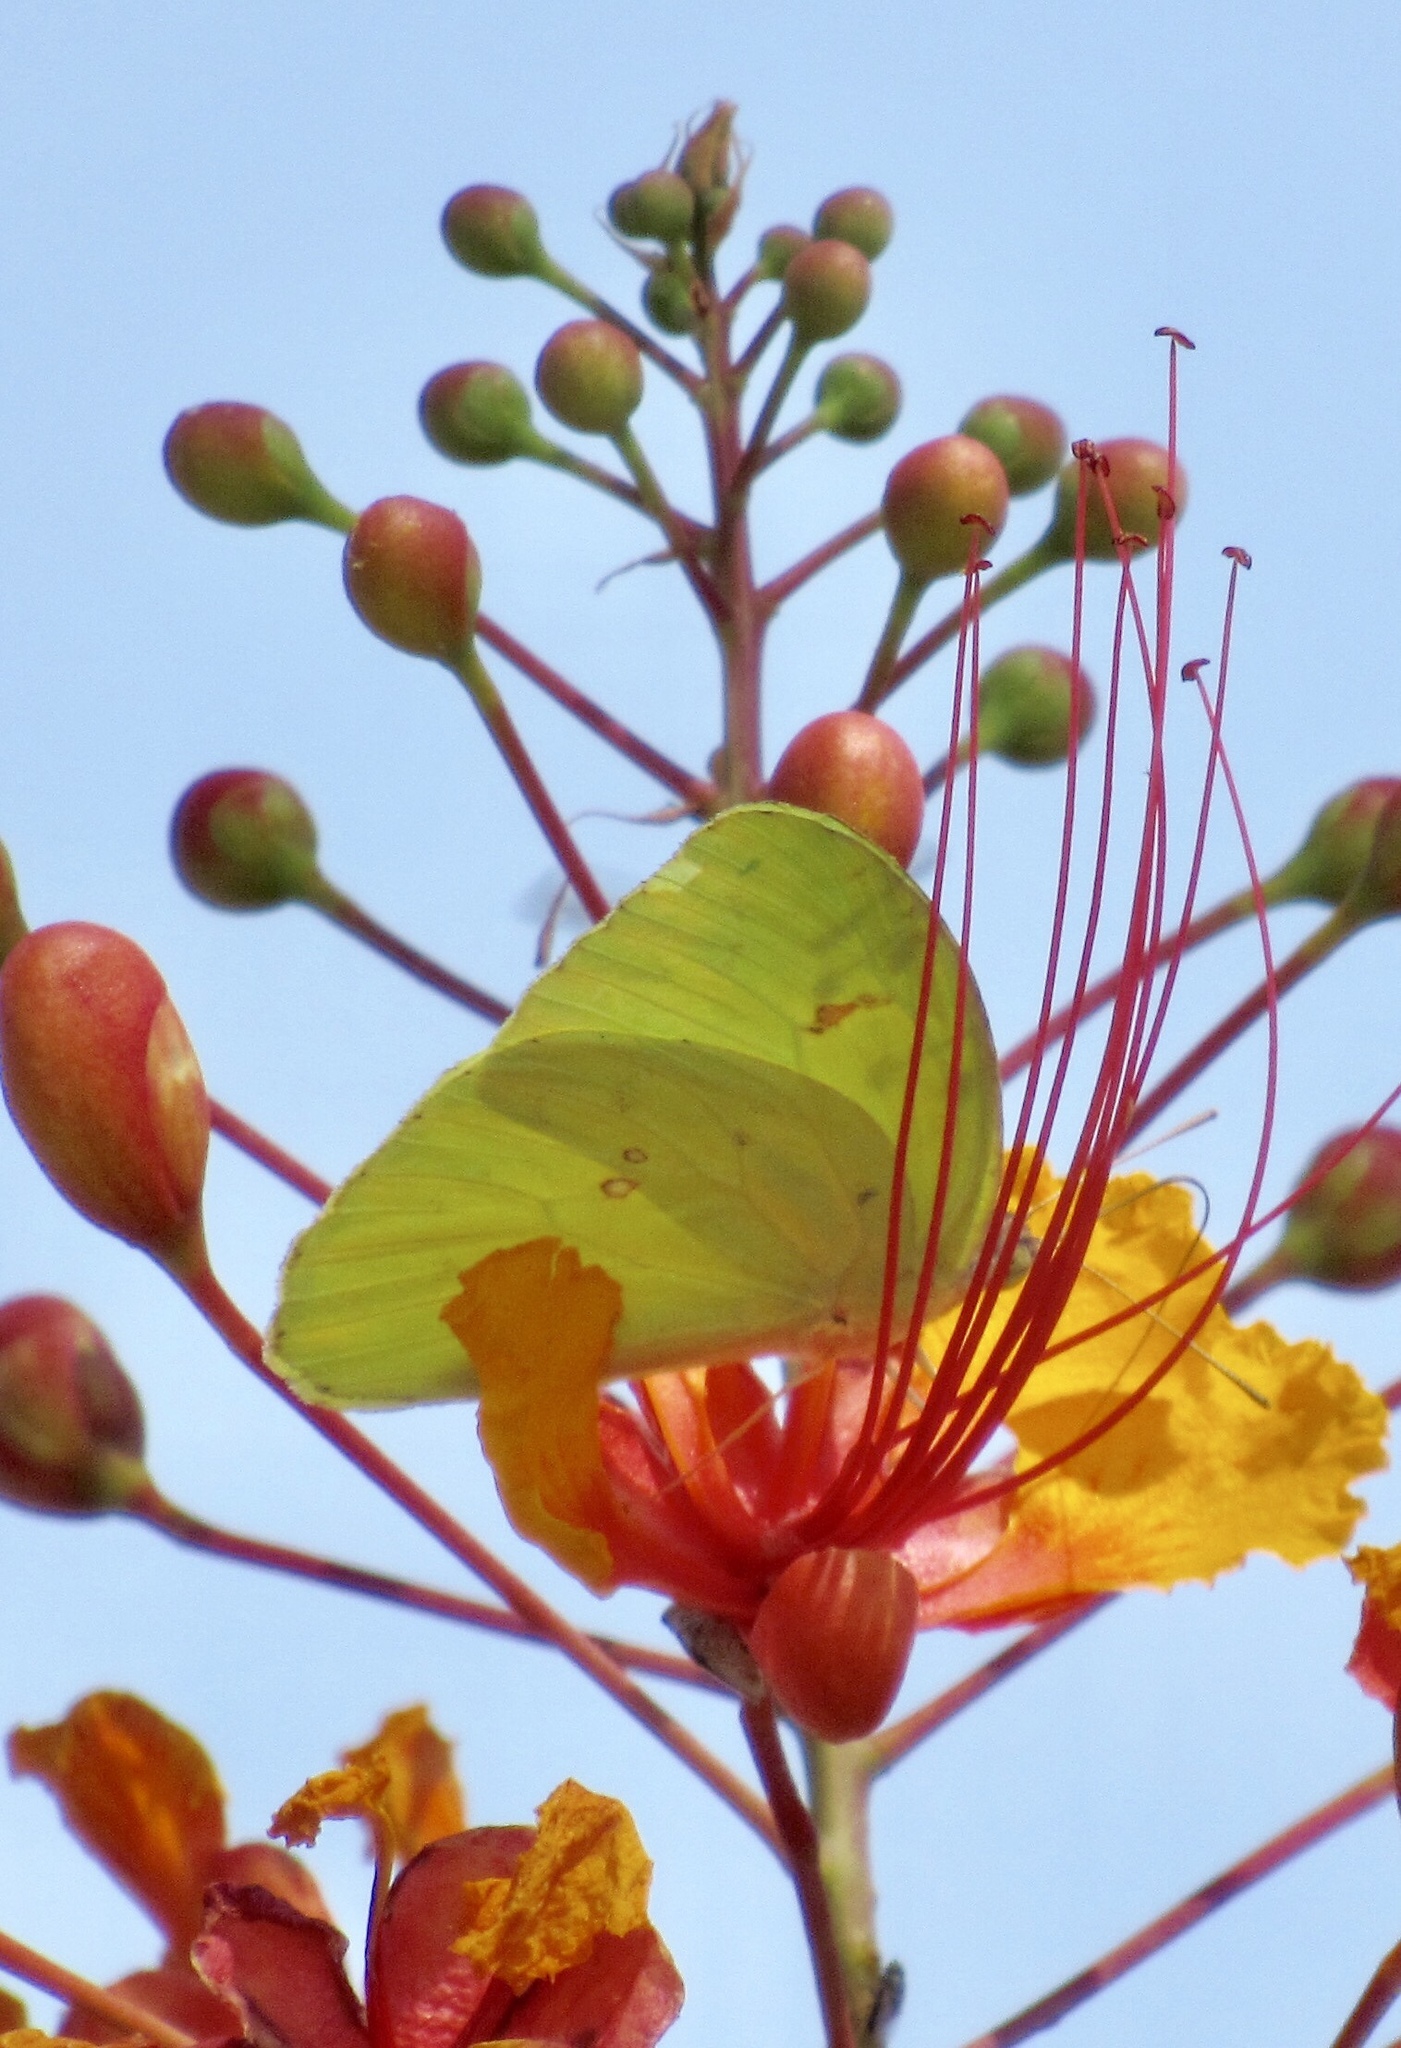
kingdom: Animalia
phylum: Arthropoda
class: Insecta
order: Lepidoptera
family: Pieridae
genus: Phoebis
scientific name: Phoebis sennae
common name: Cloudless sulphur
